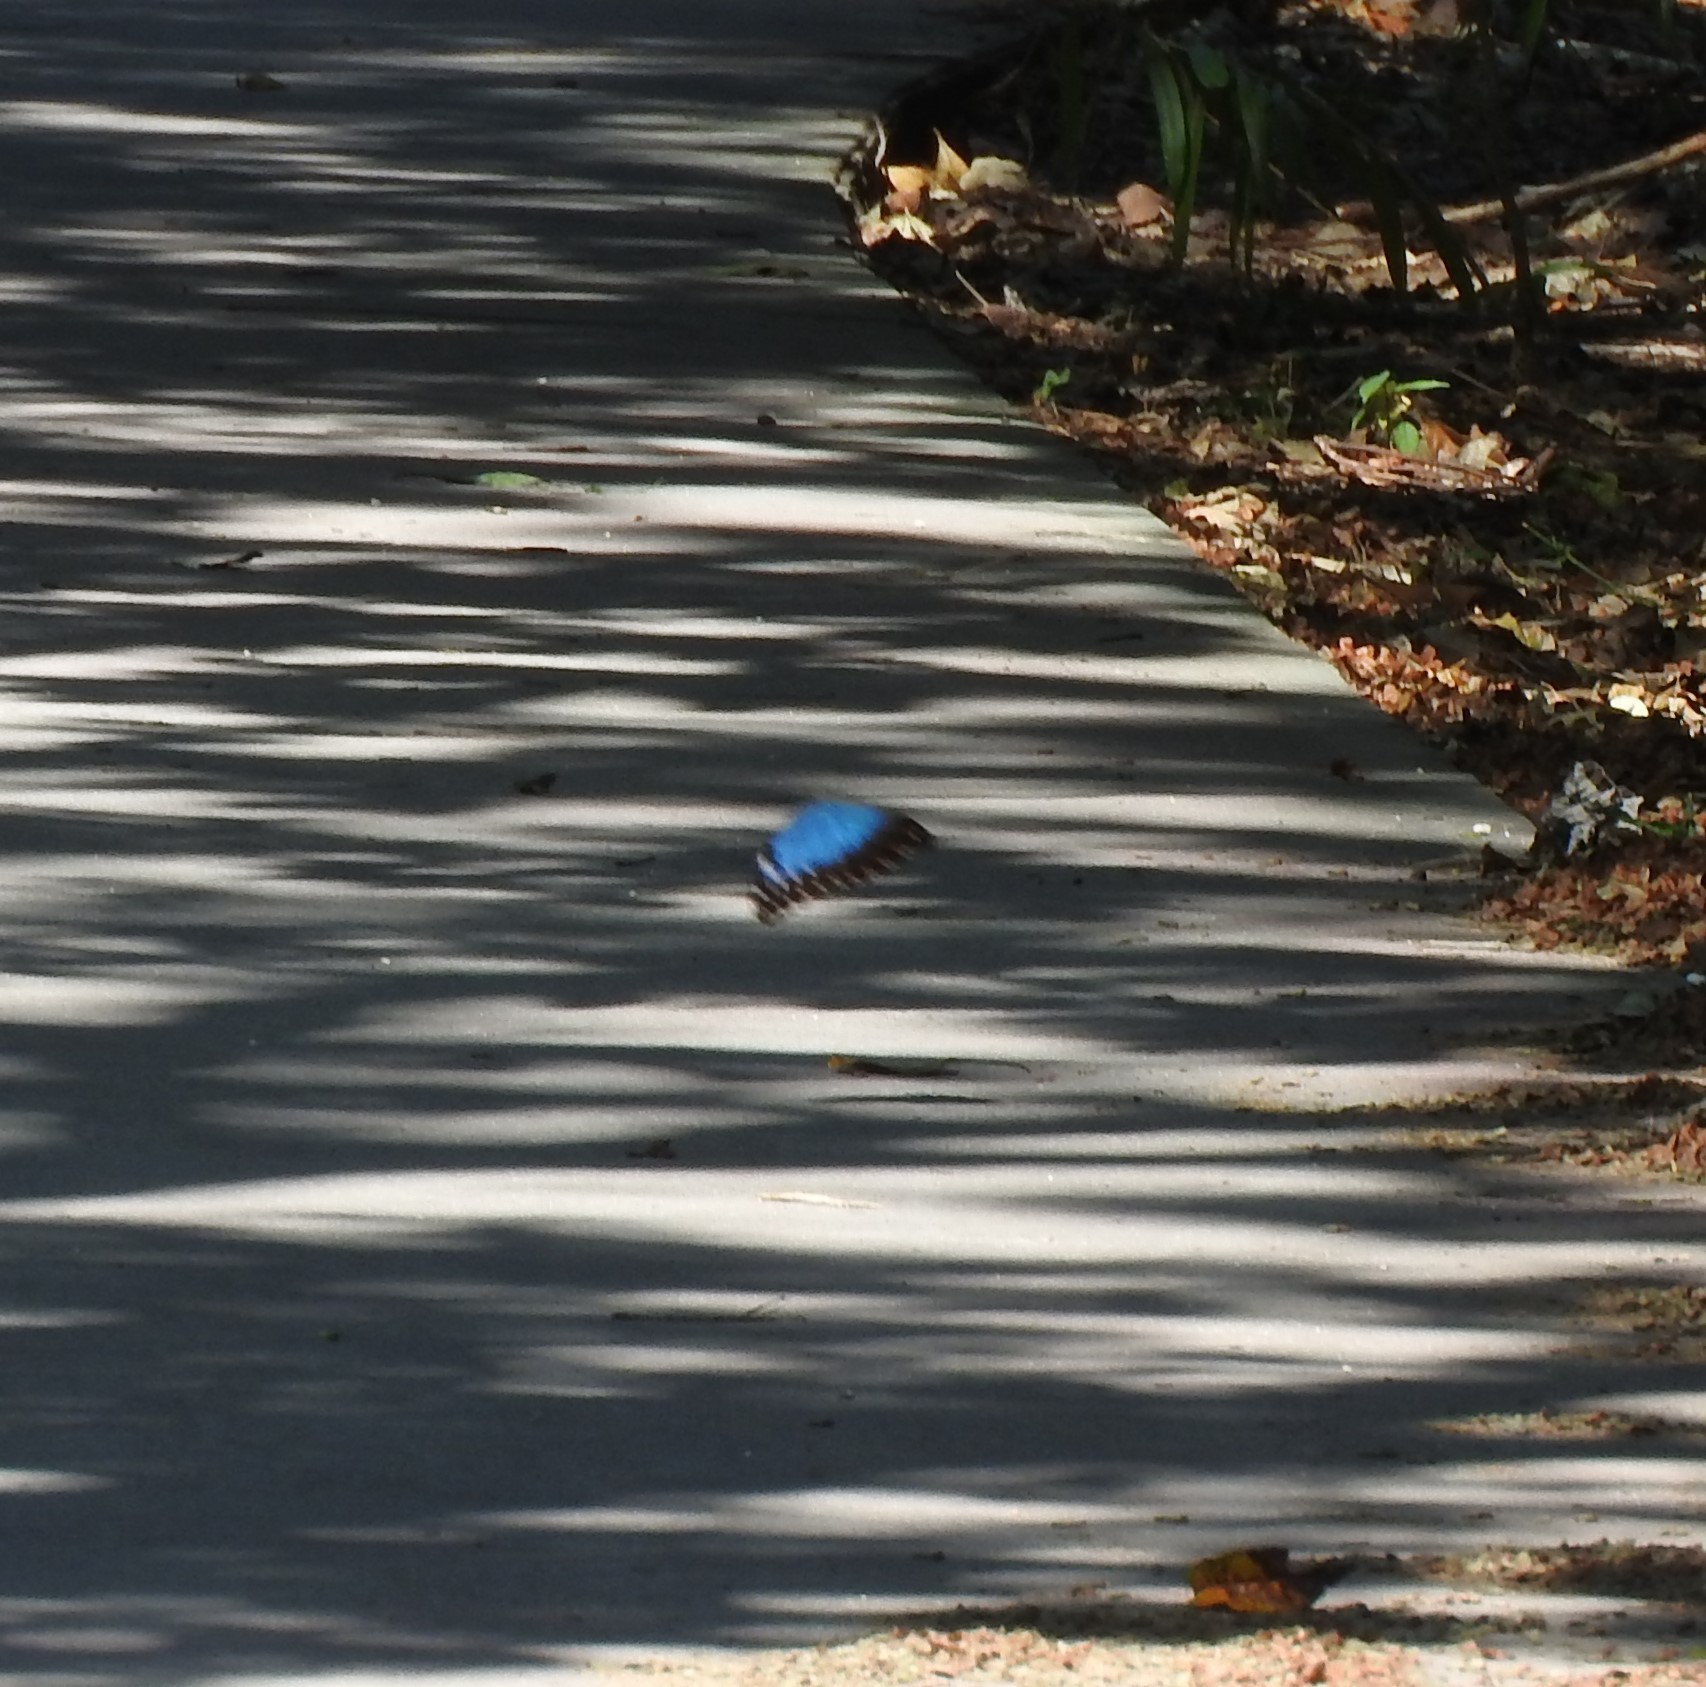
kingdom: Animalia
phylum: Arthropoda
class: Insecta
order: Lepidoptera
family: Nymphalidae
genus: Morpho
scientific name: Morpho helenor
